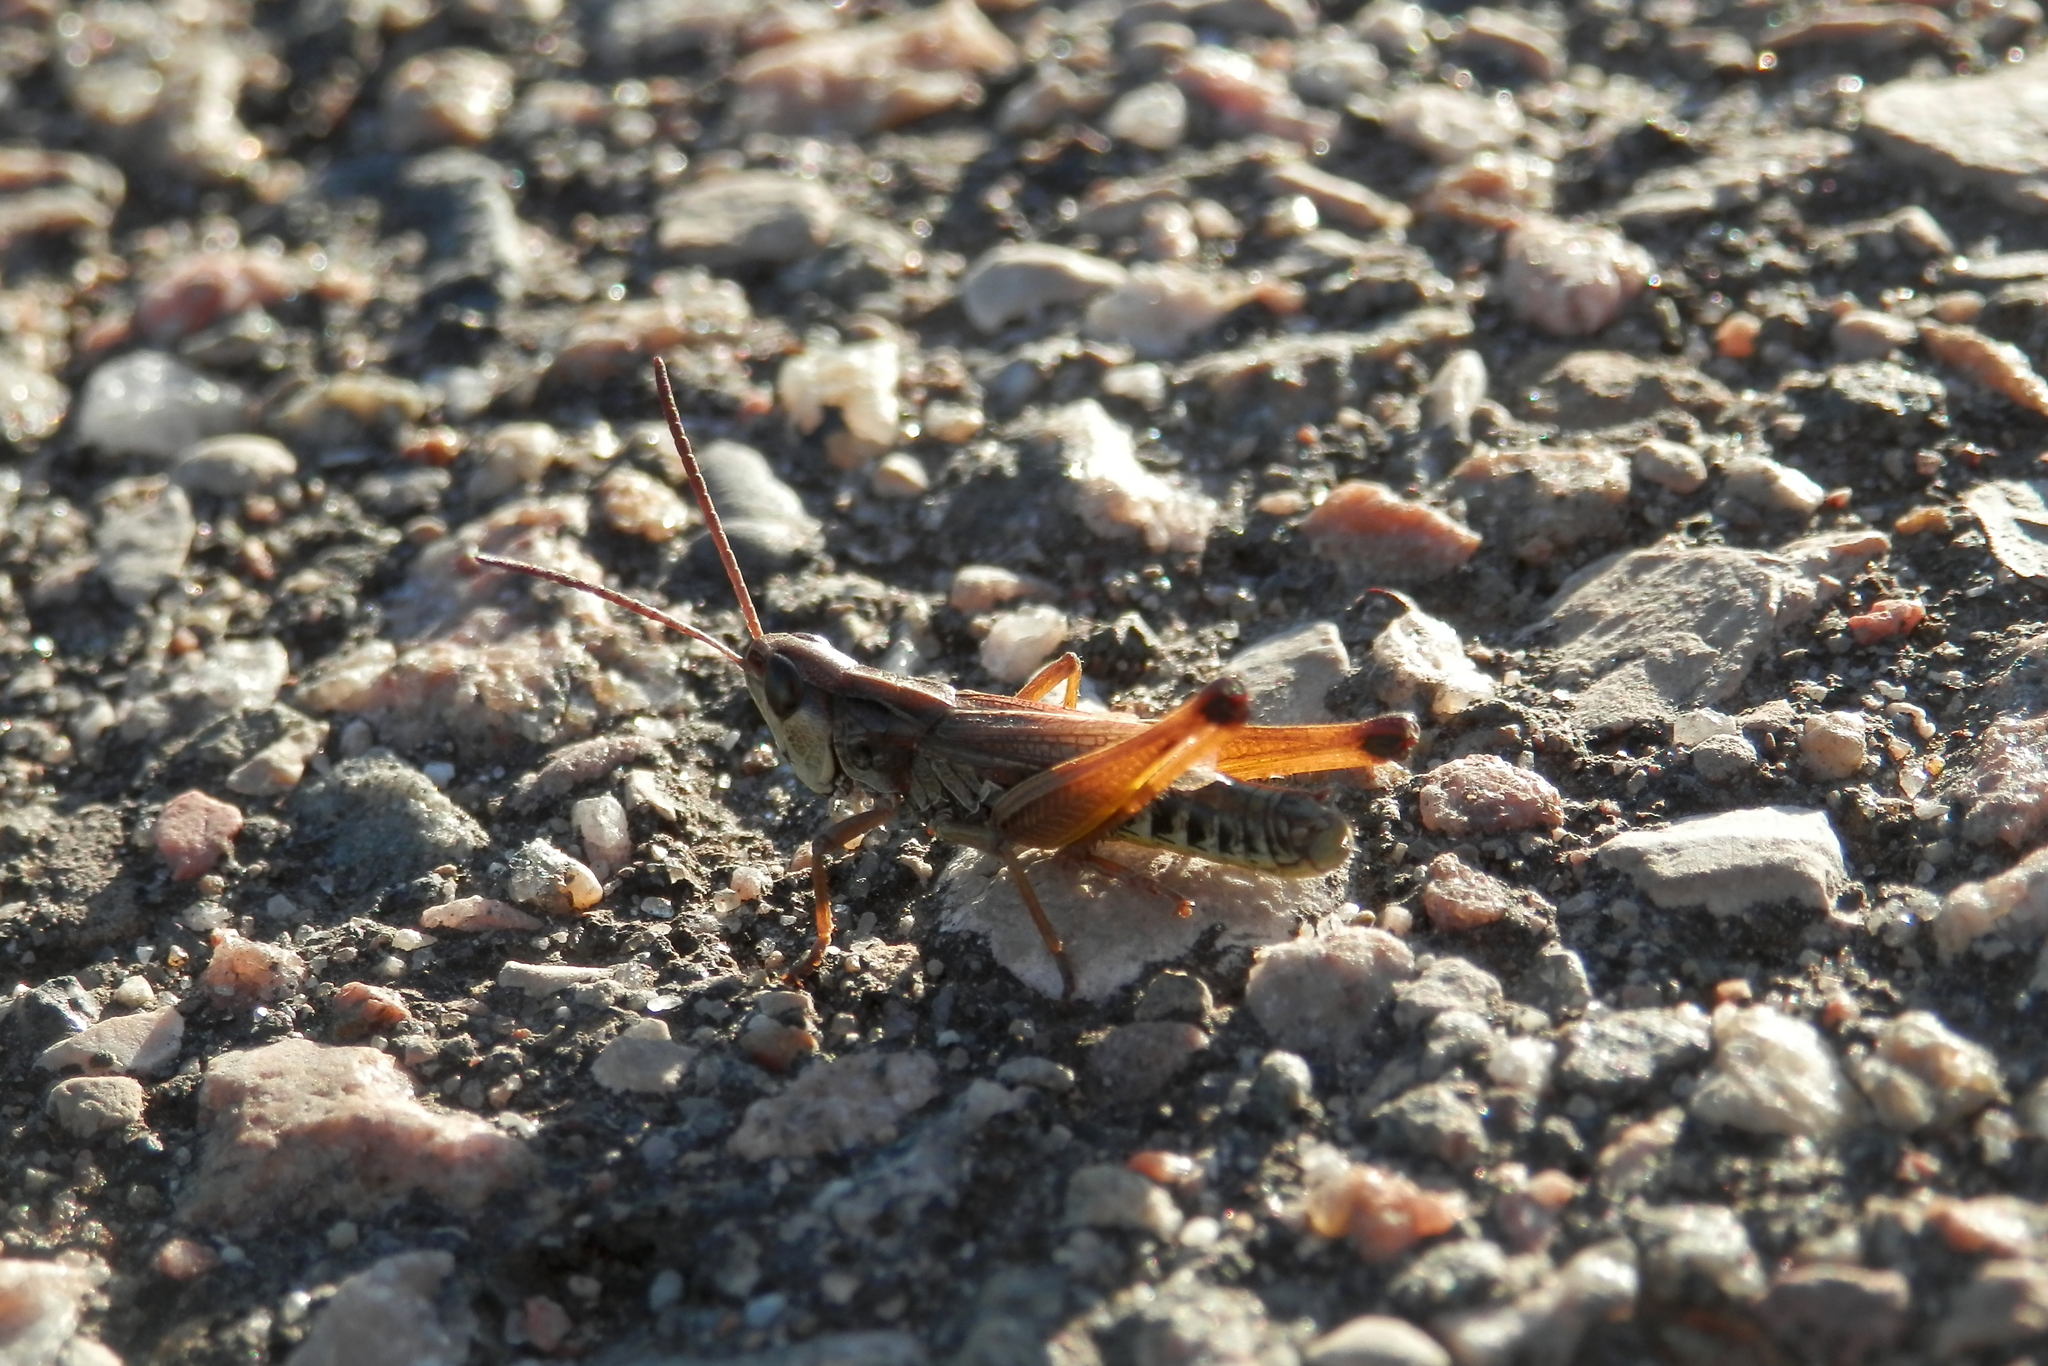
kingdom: Animalia
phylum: Arthropoda
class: Insecta
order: Orthoptera
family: Acrididae
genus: Pseudochorthippus
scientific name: Pseudochorthippus curtipennis
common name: Marsh meadow grasshopper
